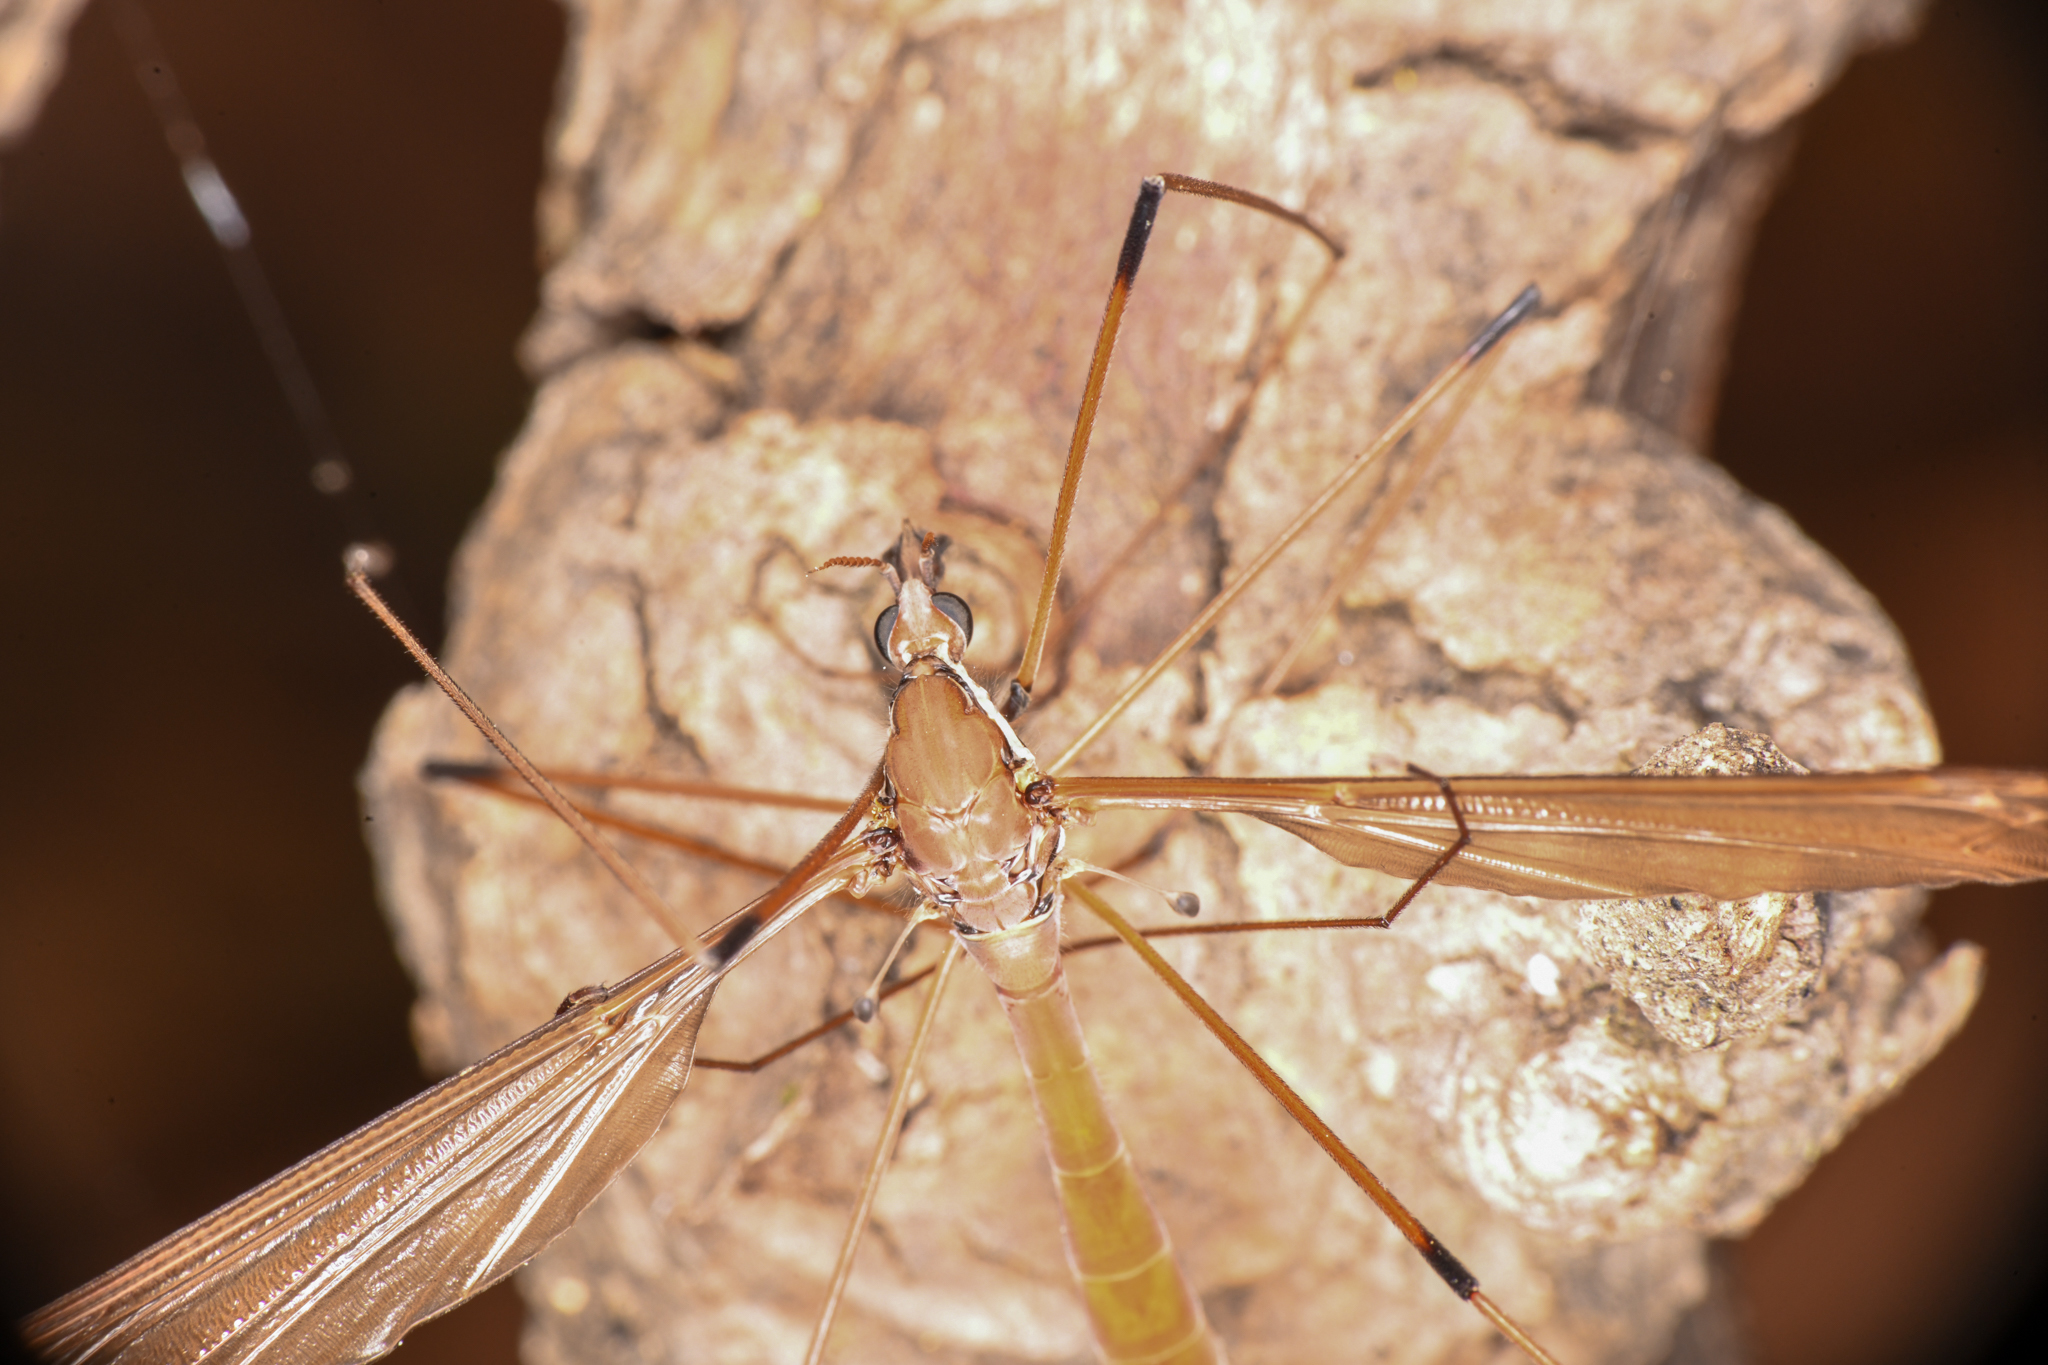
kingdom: Animalia
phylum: Arthropoda
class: Insecta
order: Diptera
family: Tipulidae
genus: Holorusia
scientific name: Holorusia hespera
